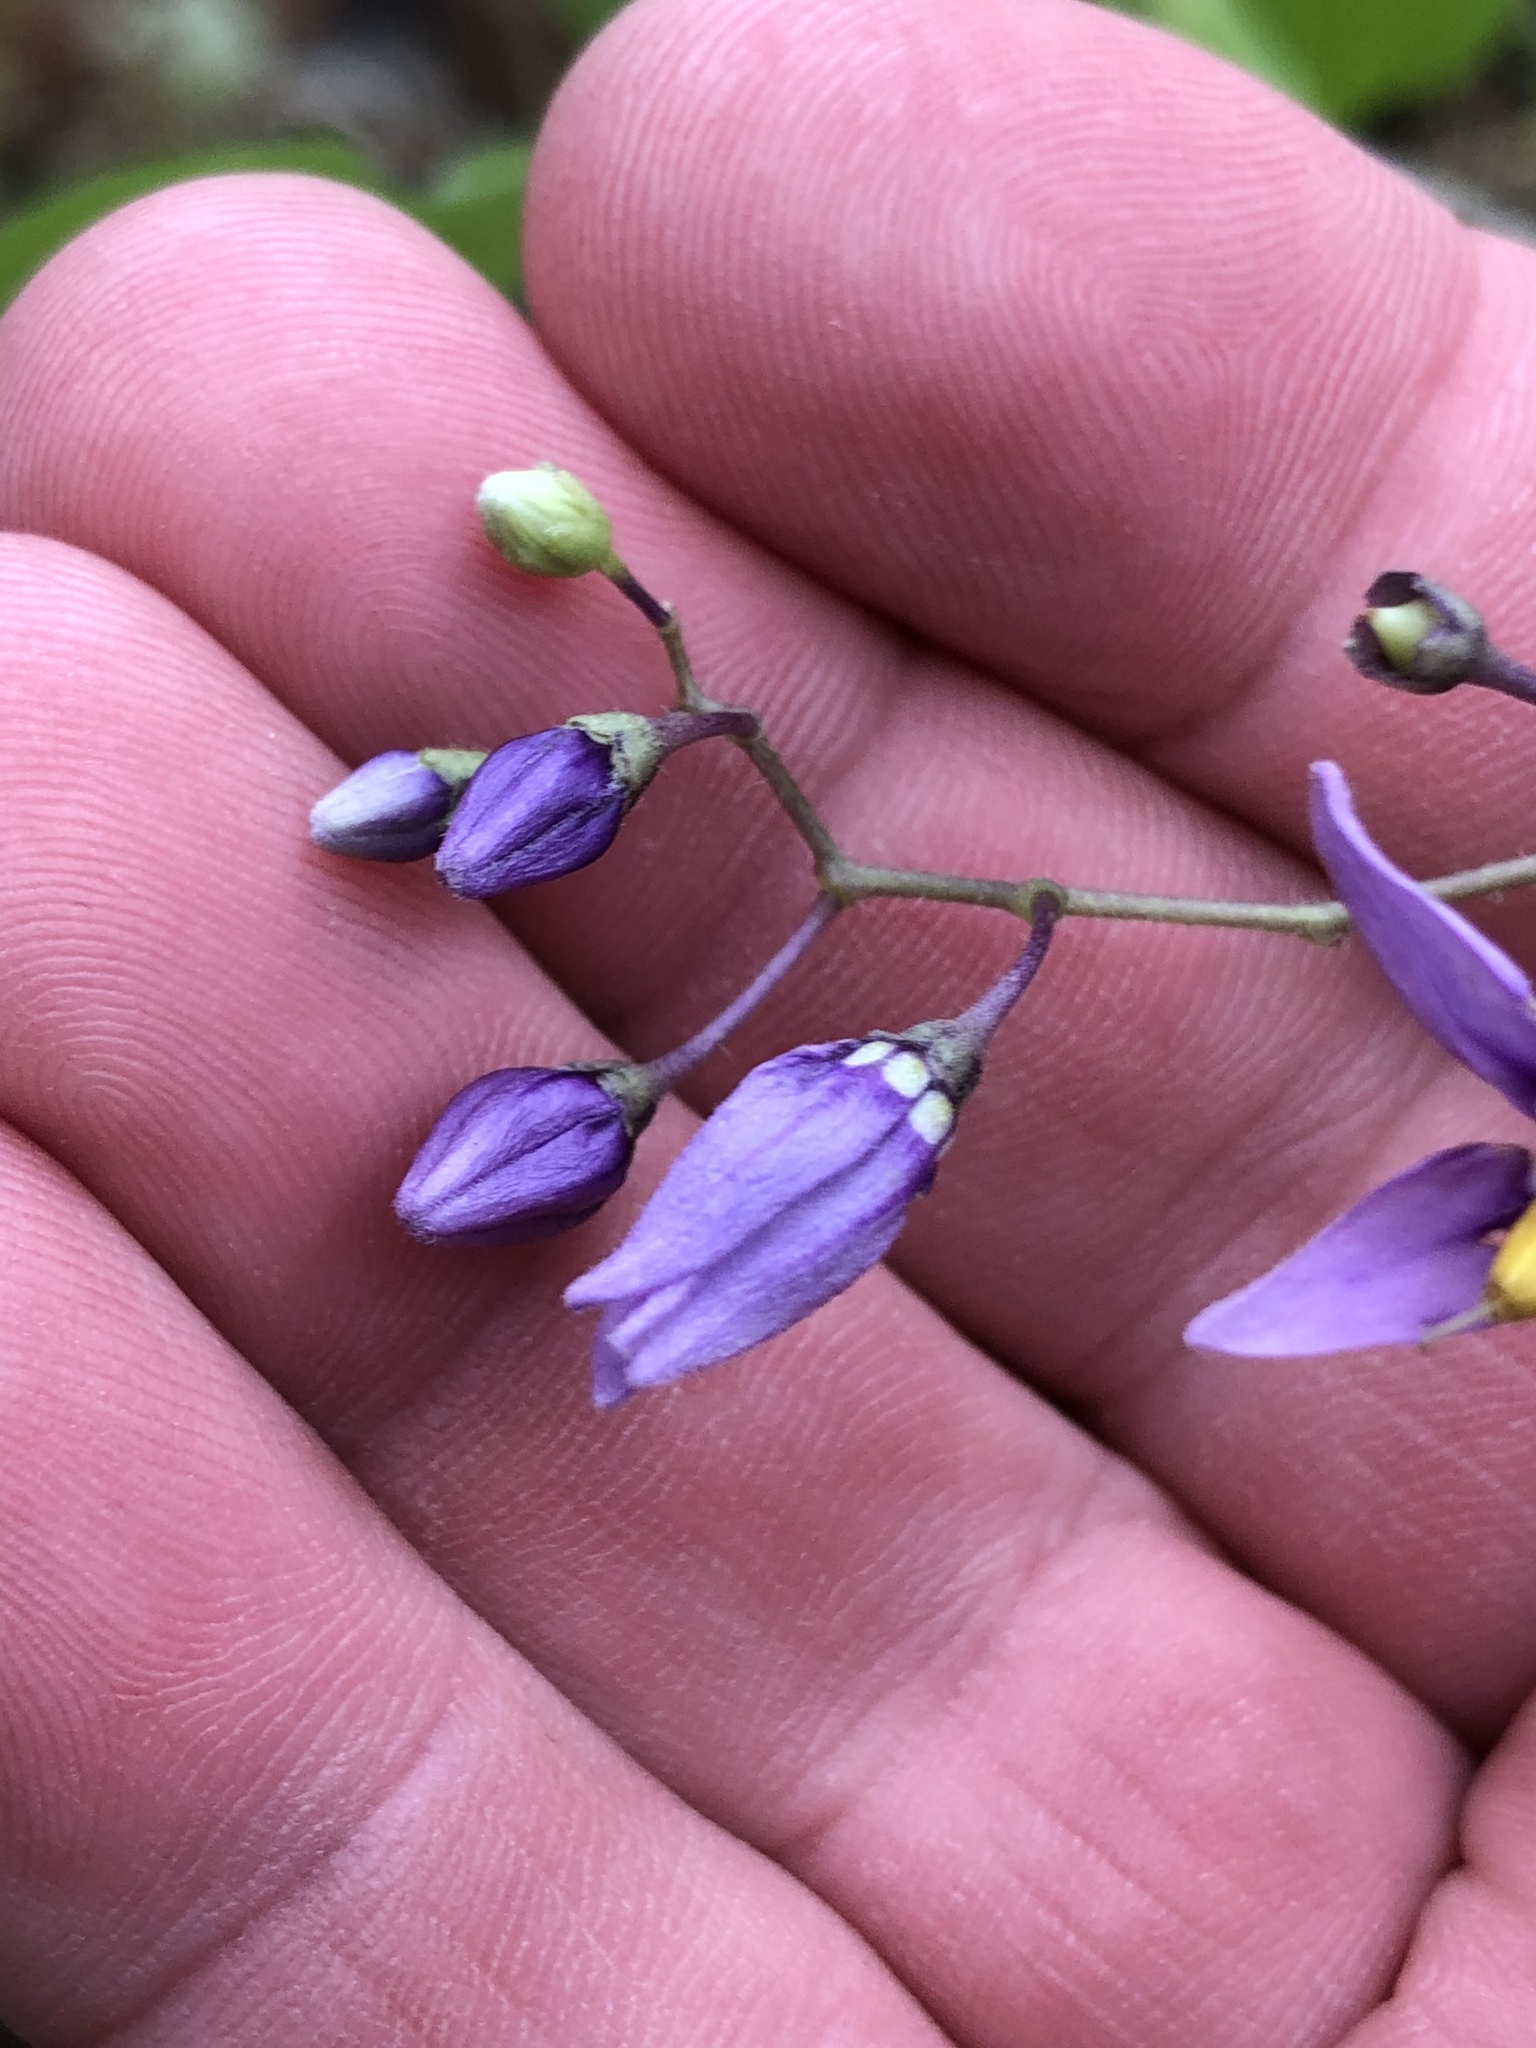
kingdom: Plantae
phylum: Tracheophyta
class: Magnoliopsida
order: Solanales
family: Solanaceae
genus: Solanum
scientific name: Solanum dulcamara
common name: Climbing nightshade
